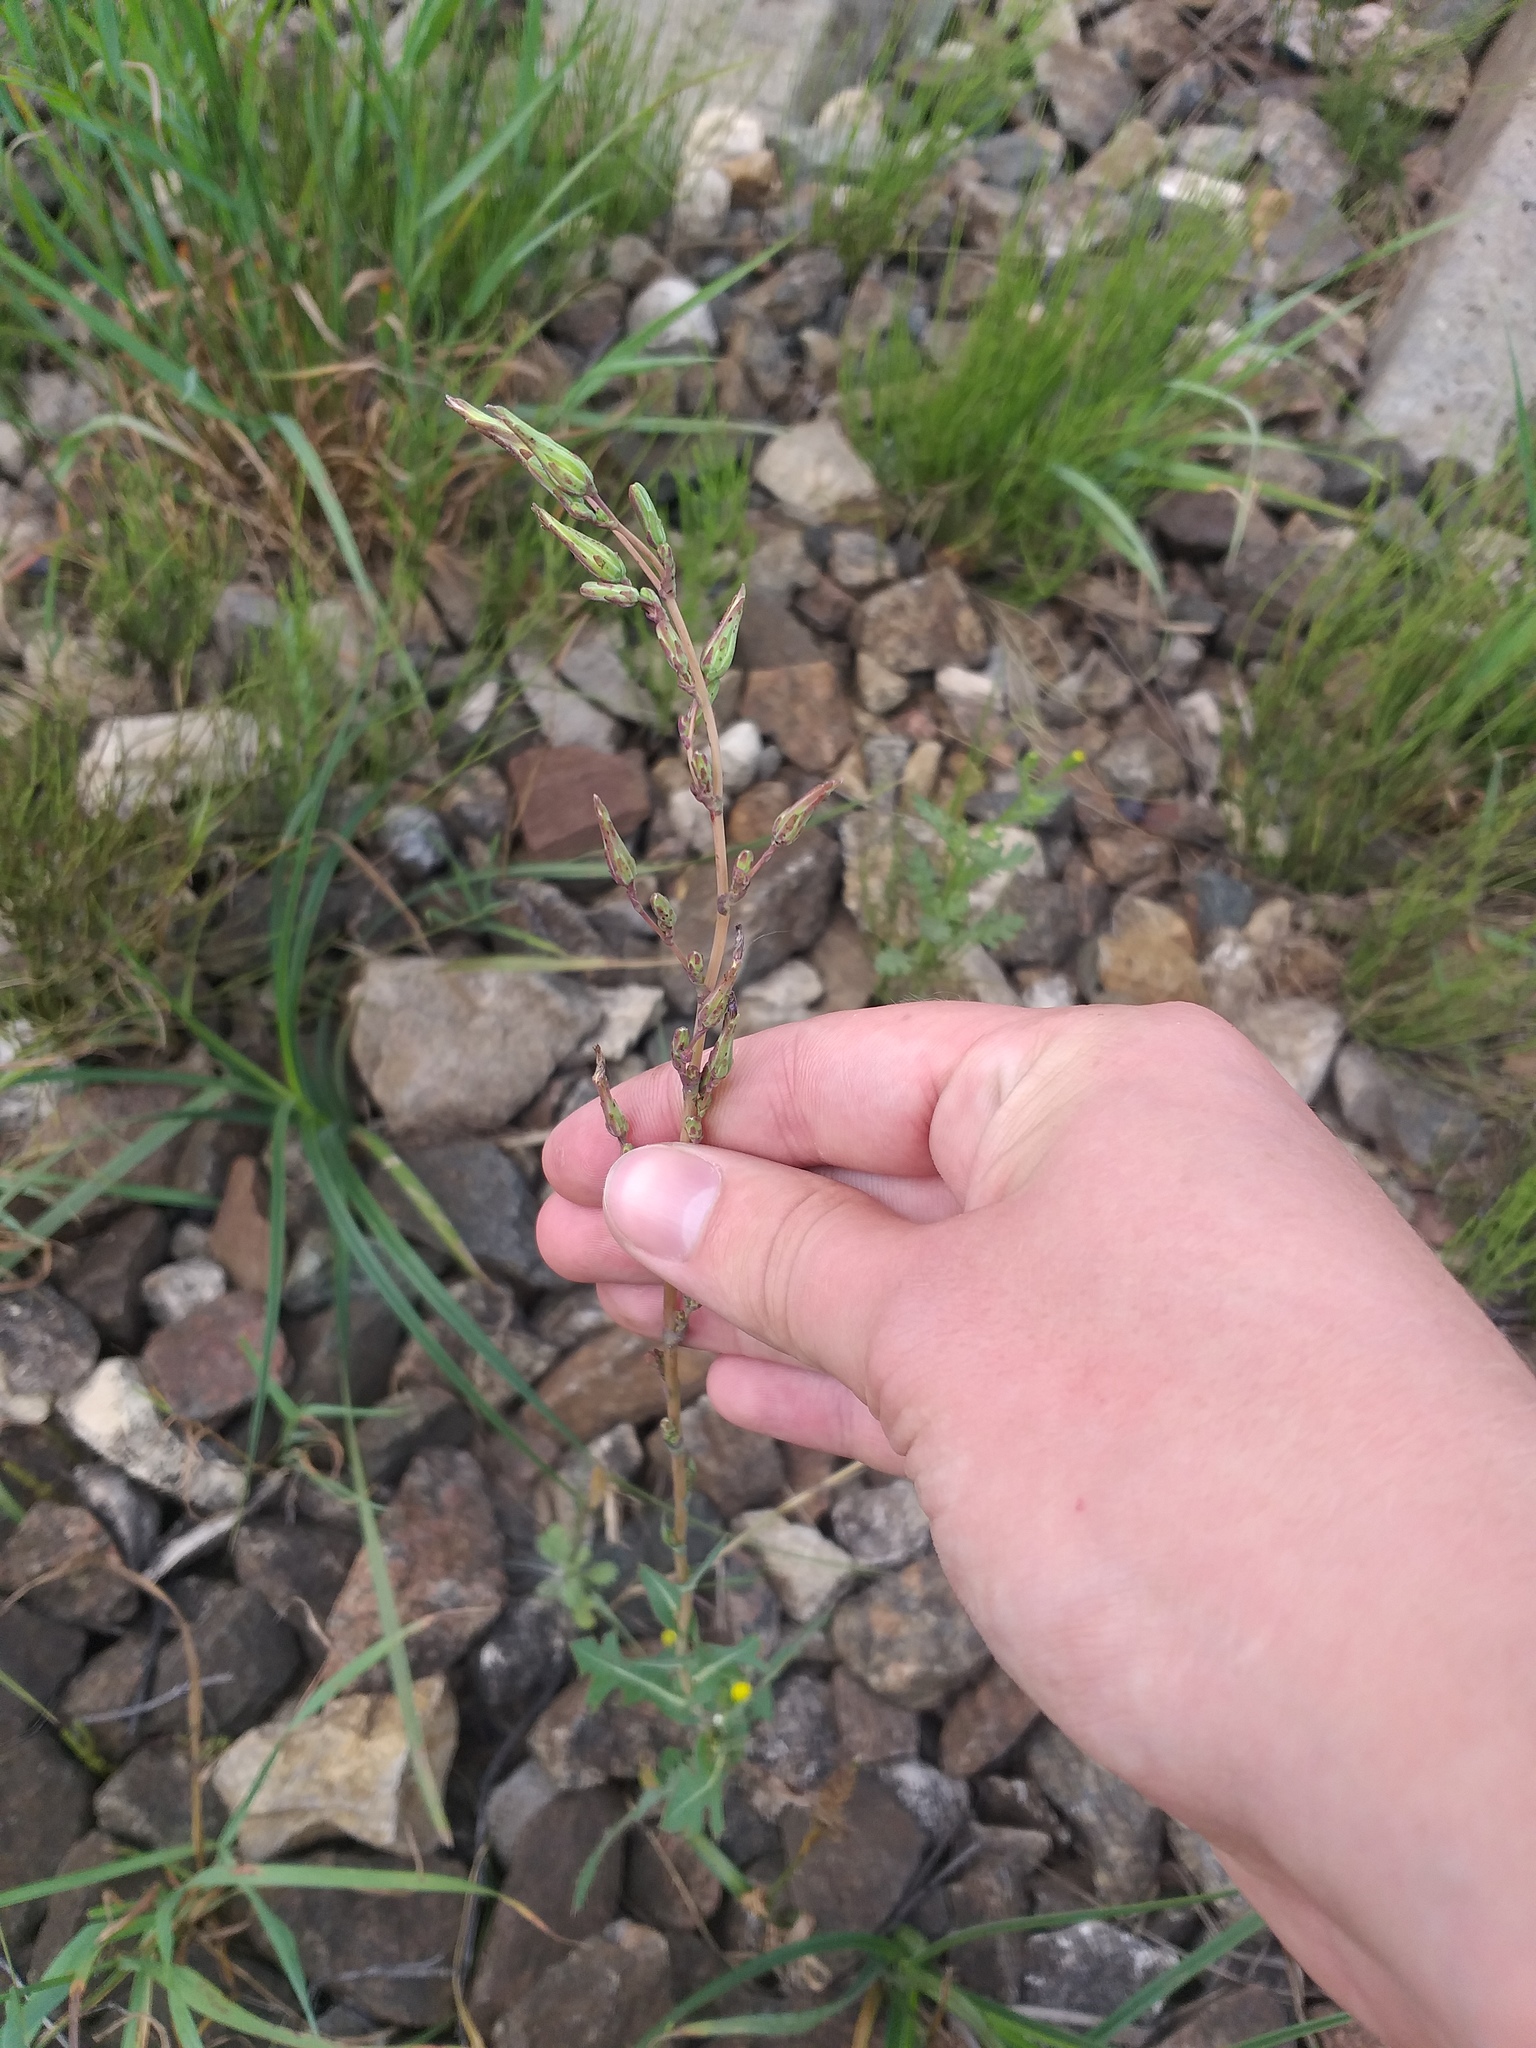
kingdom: Plantae
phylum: Tracheophyta
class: Magnoliopsida
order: Asterales
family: Asteraceae
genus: Lactuca
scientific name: Lactuca serriola
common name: Prickly lettuce
